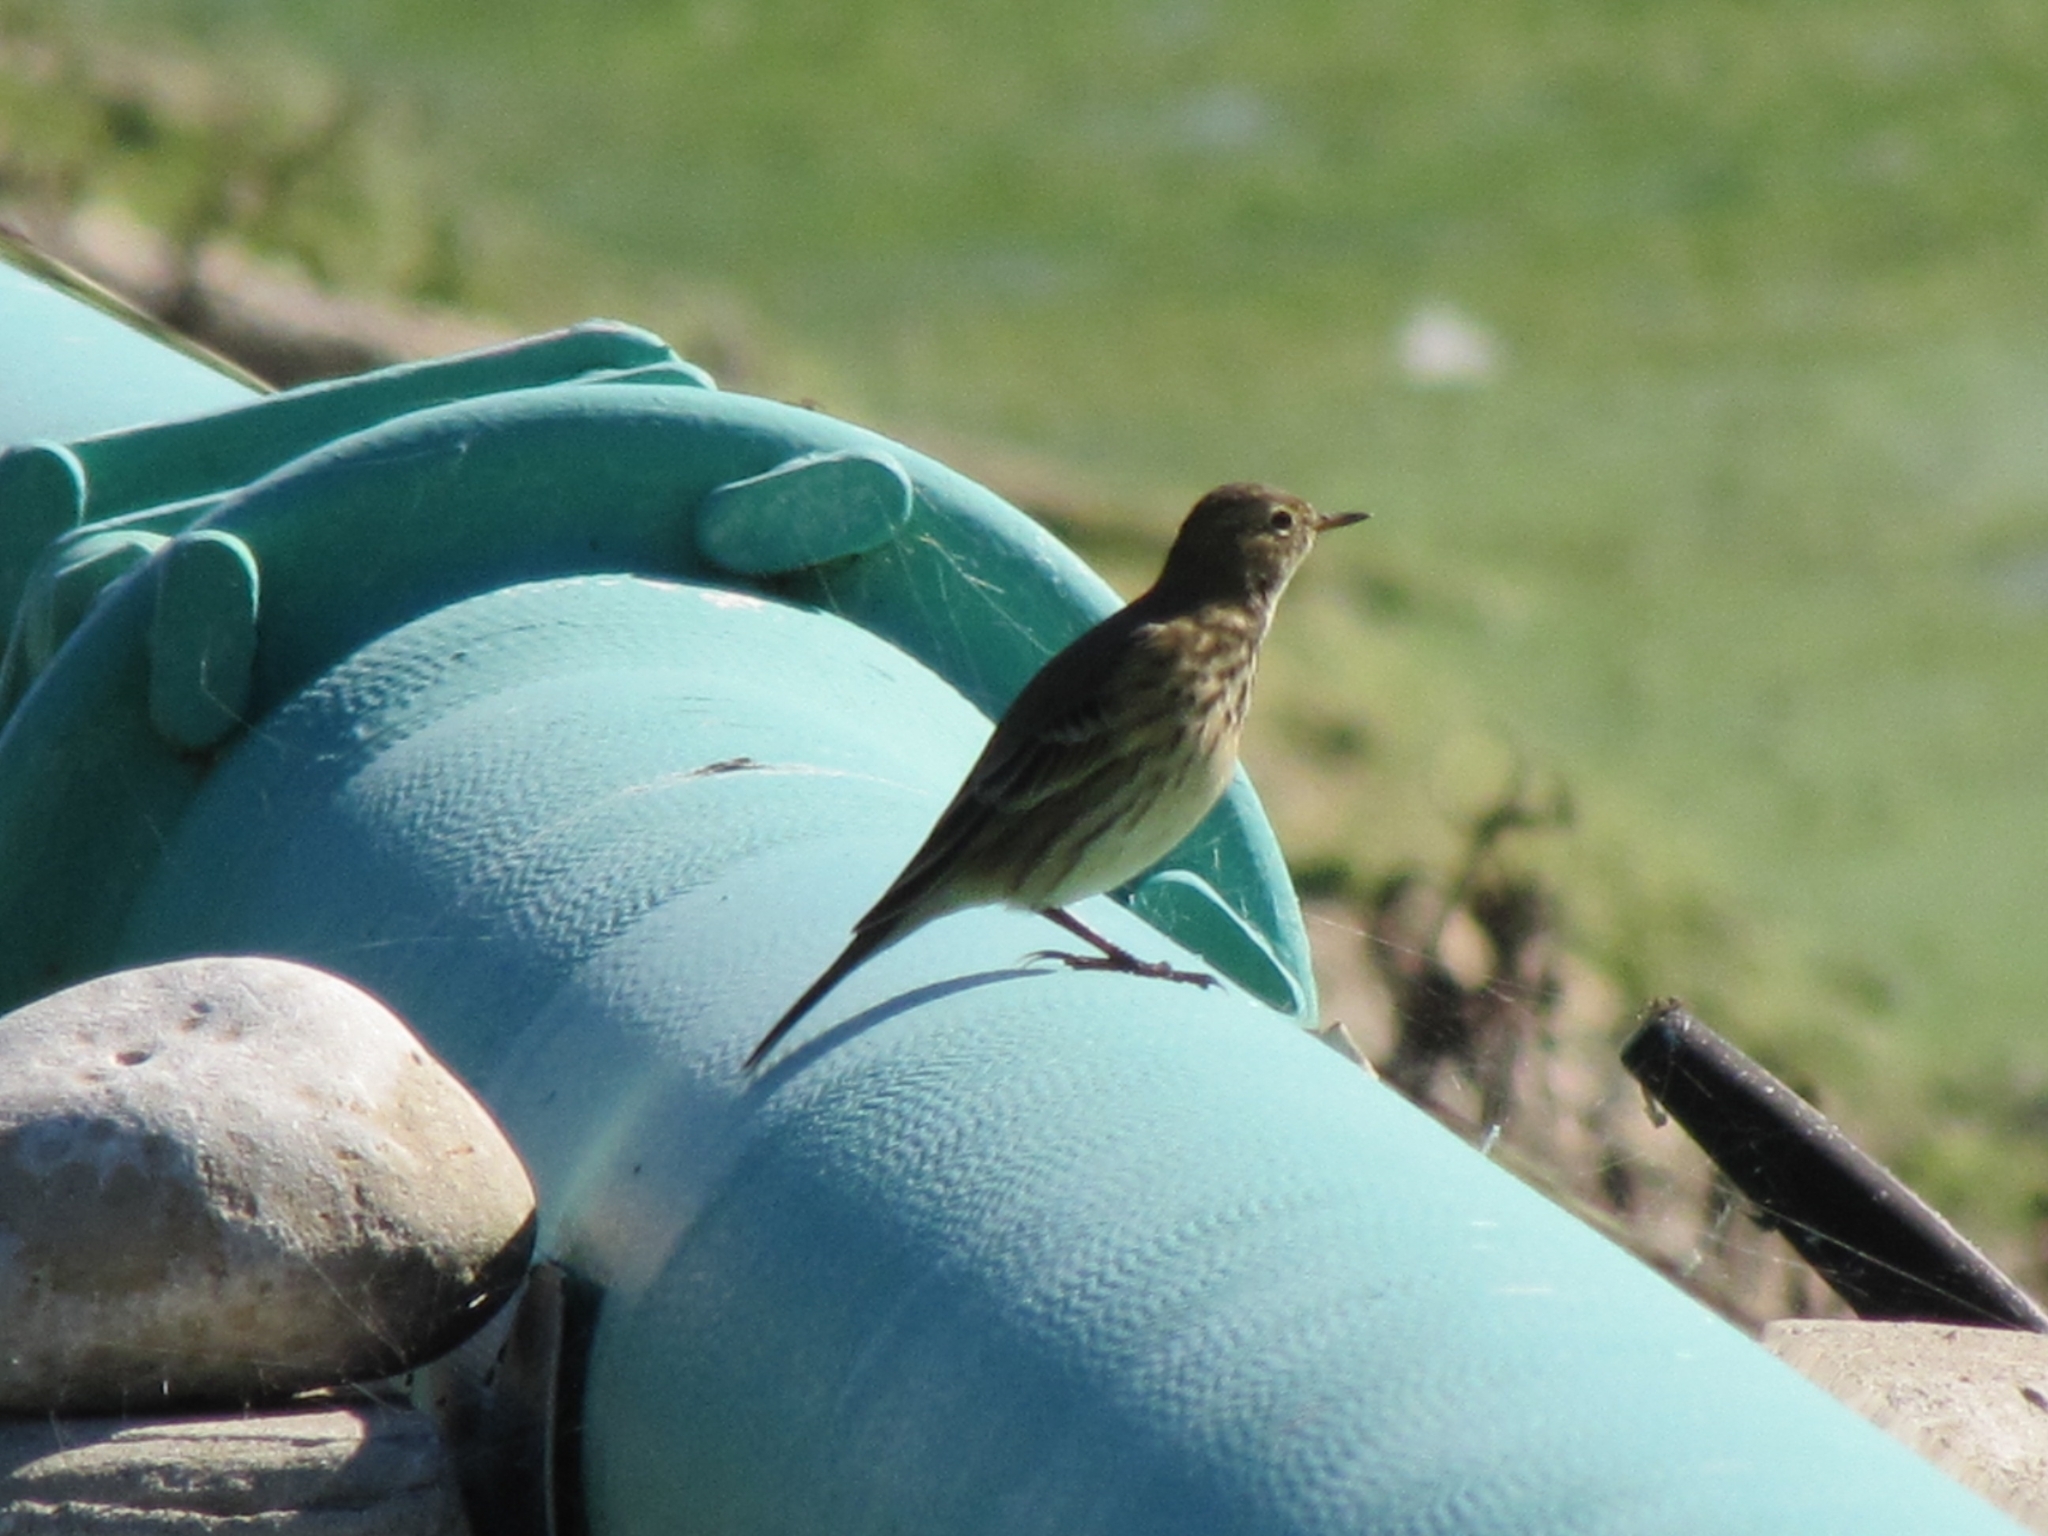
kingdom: Animalia
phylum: Chordata
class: Aves
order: Passeriformes
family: Motacillidae
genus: Anthus
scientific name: Anthus rubescens
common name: Buff-bellied pipit
